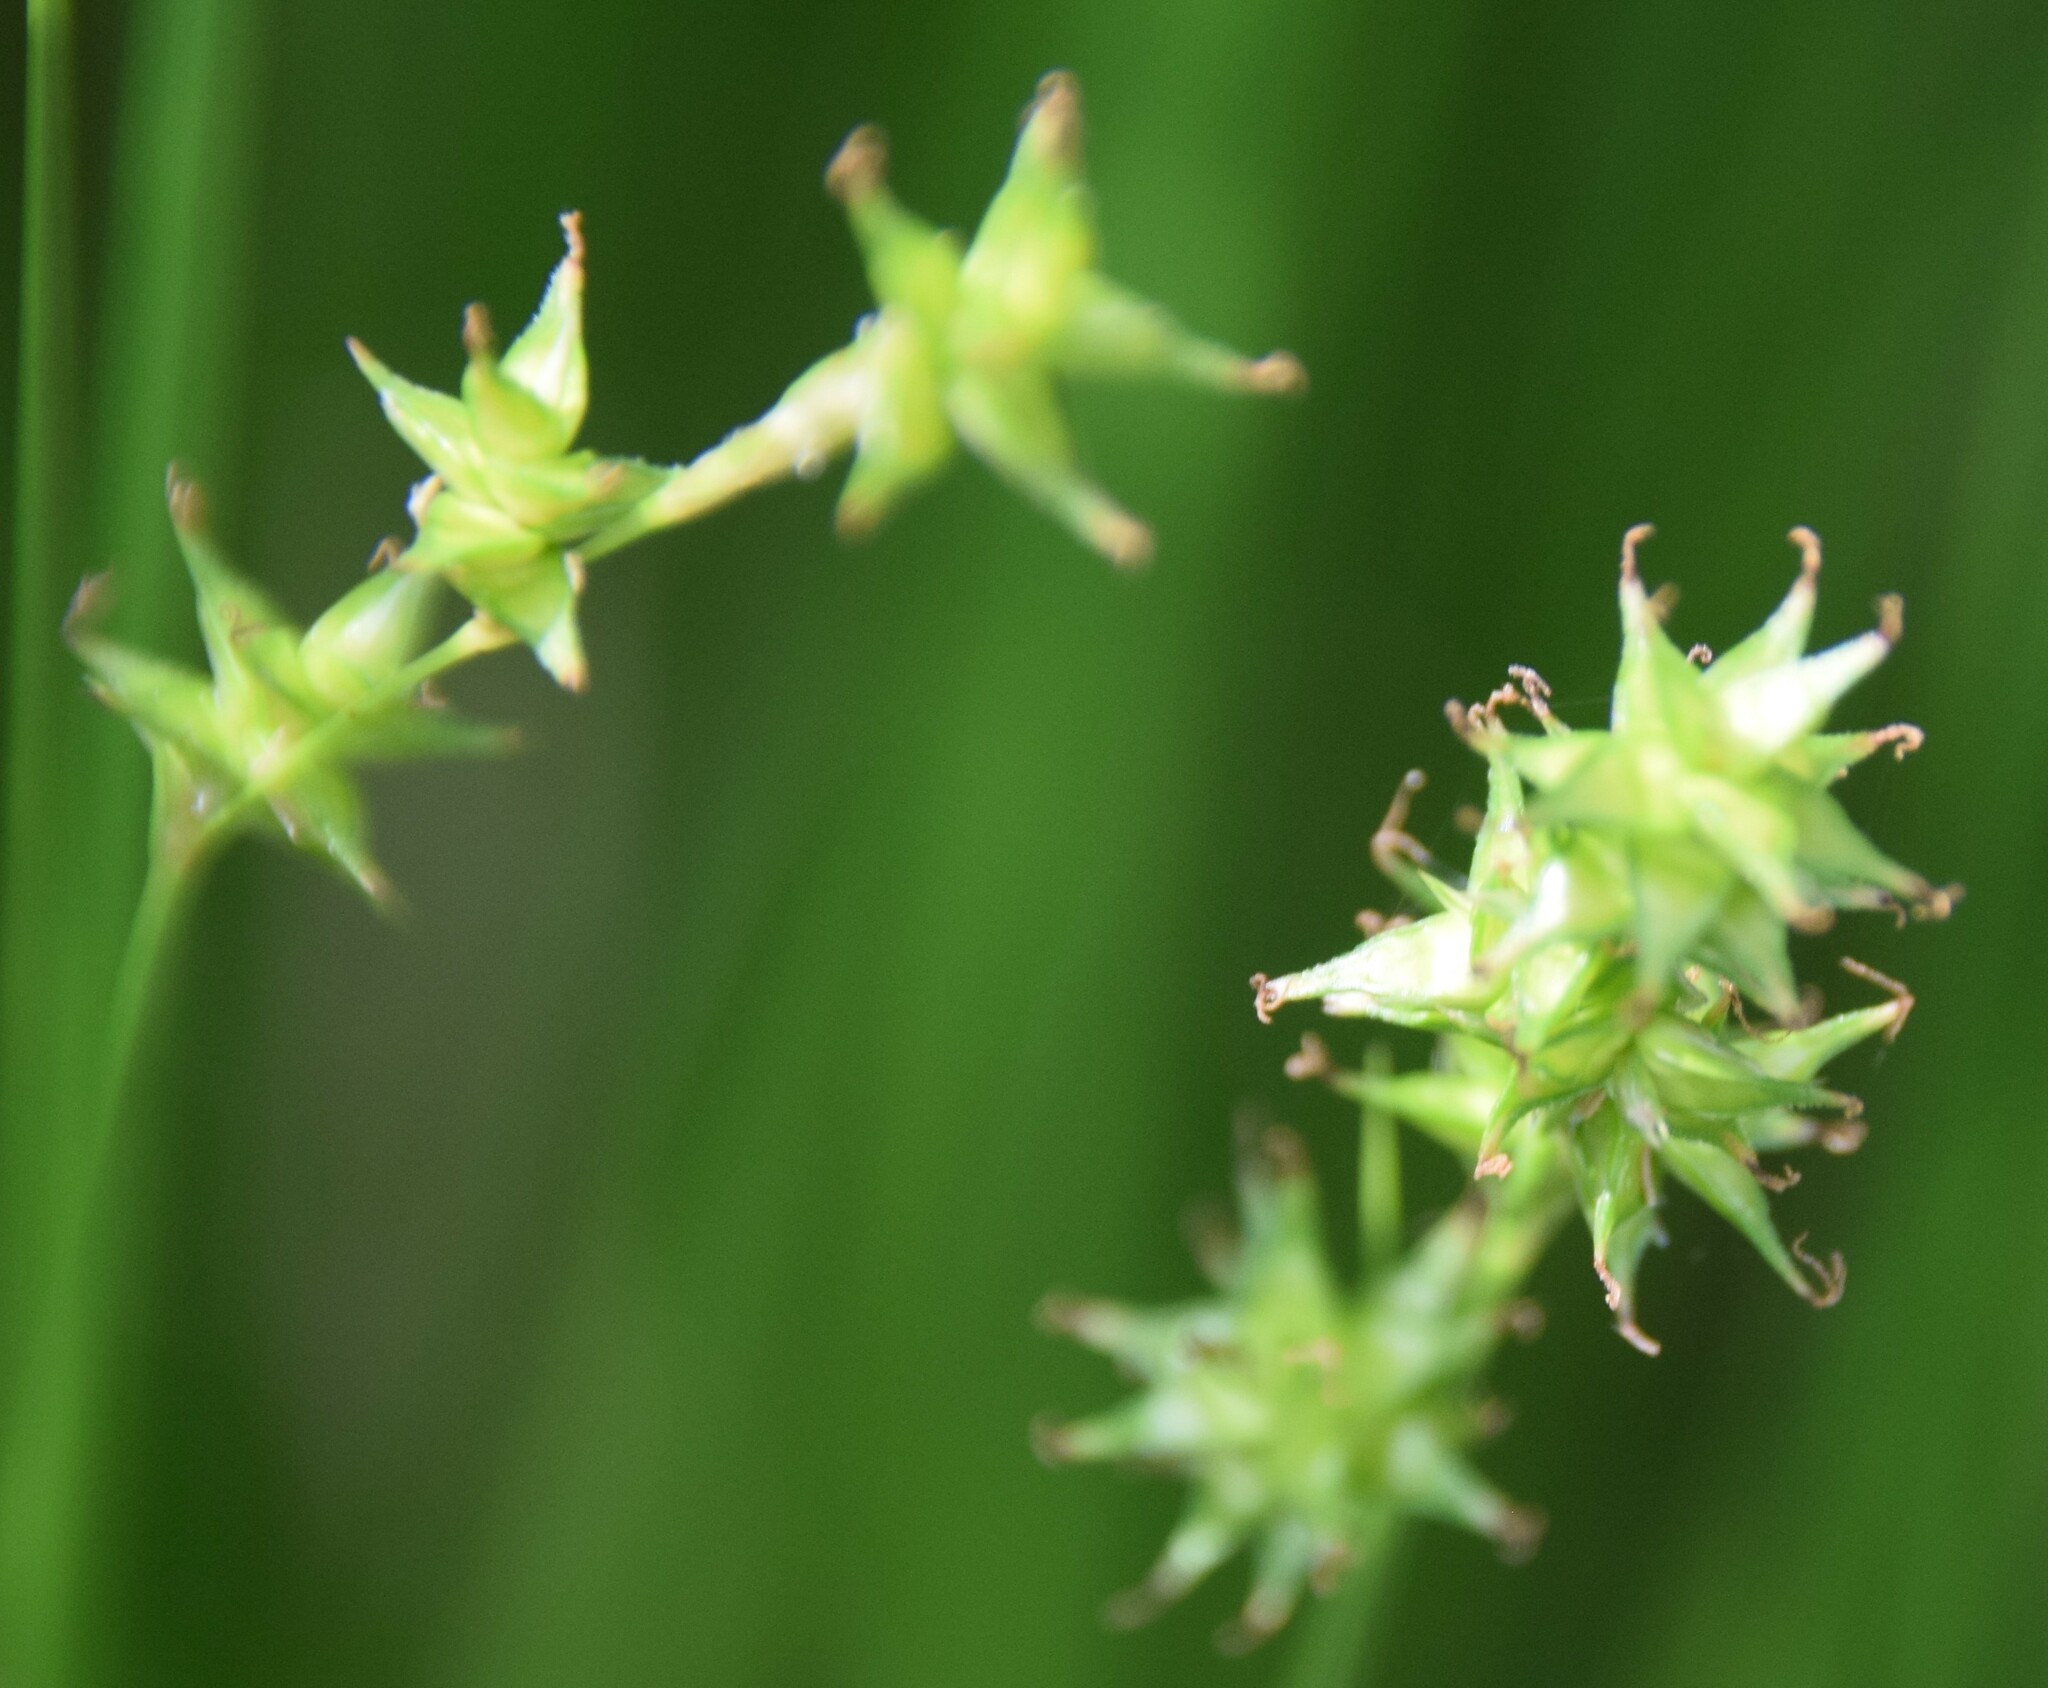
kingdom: Plantae
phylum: Tracheophyta
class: Liliopsida
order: Poales
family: Cyperaceae
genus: Carex
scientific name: Carex echinata
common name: Star sedge
